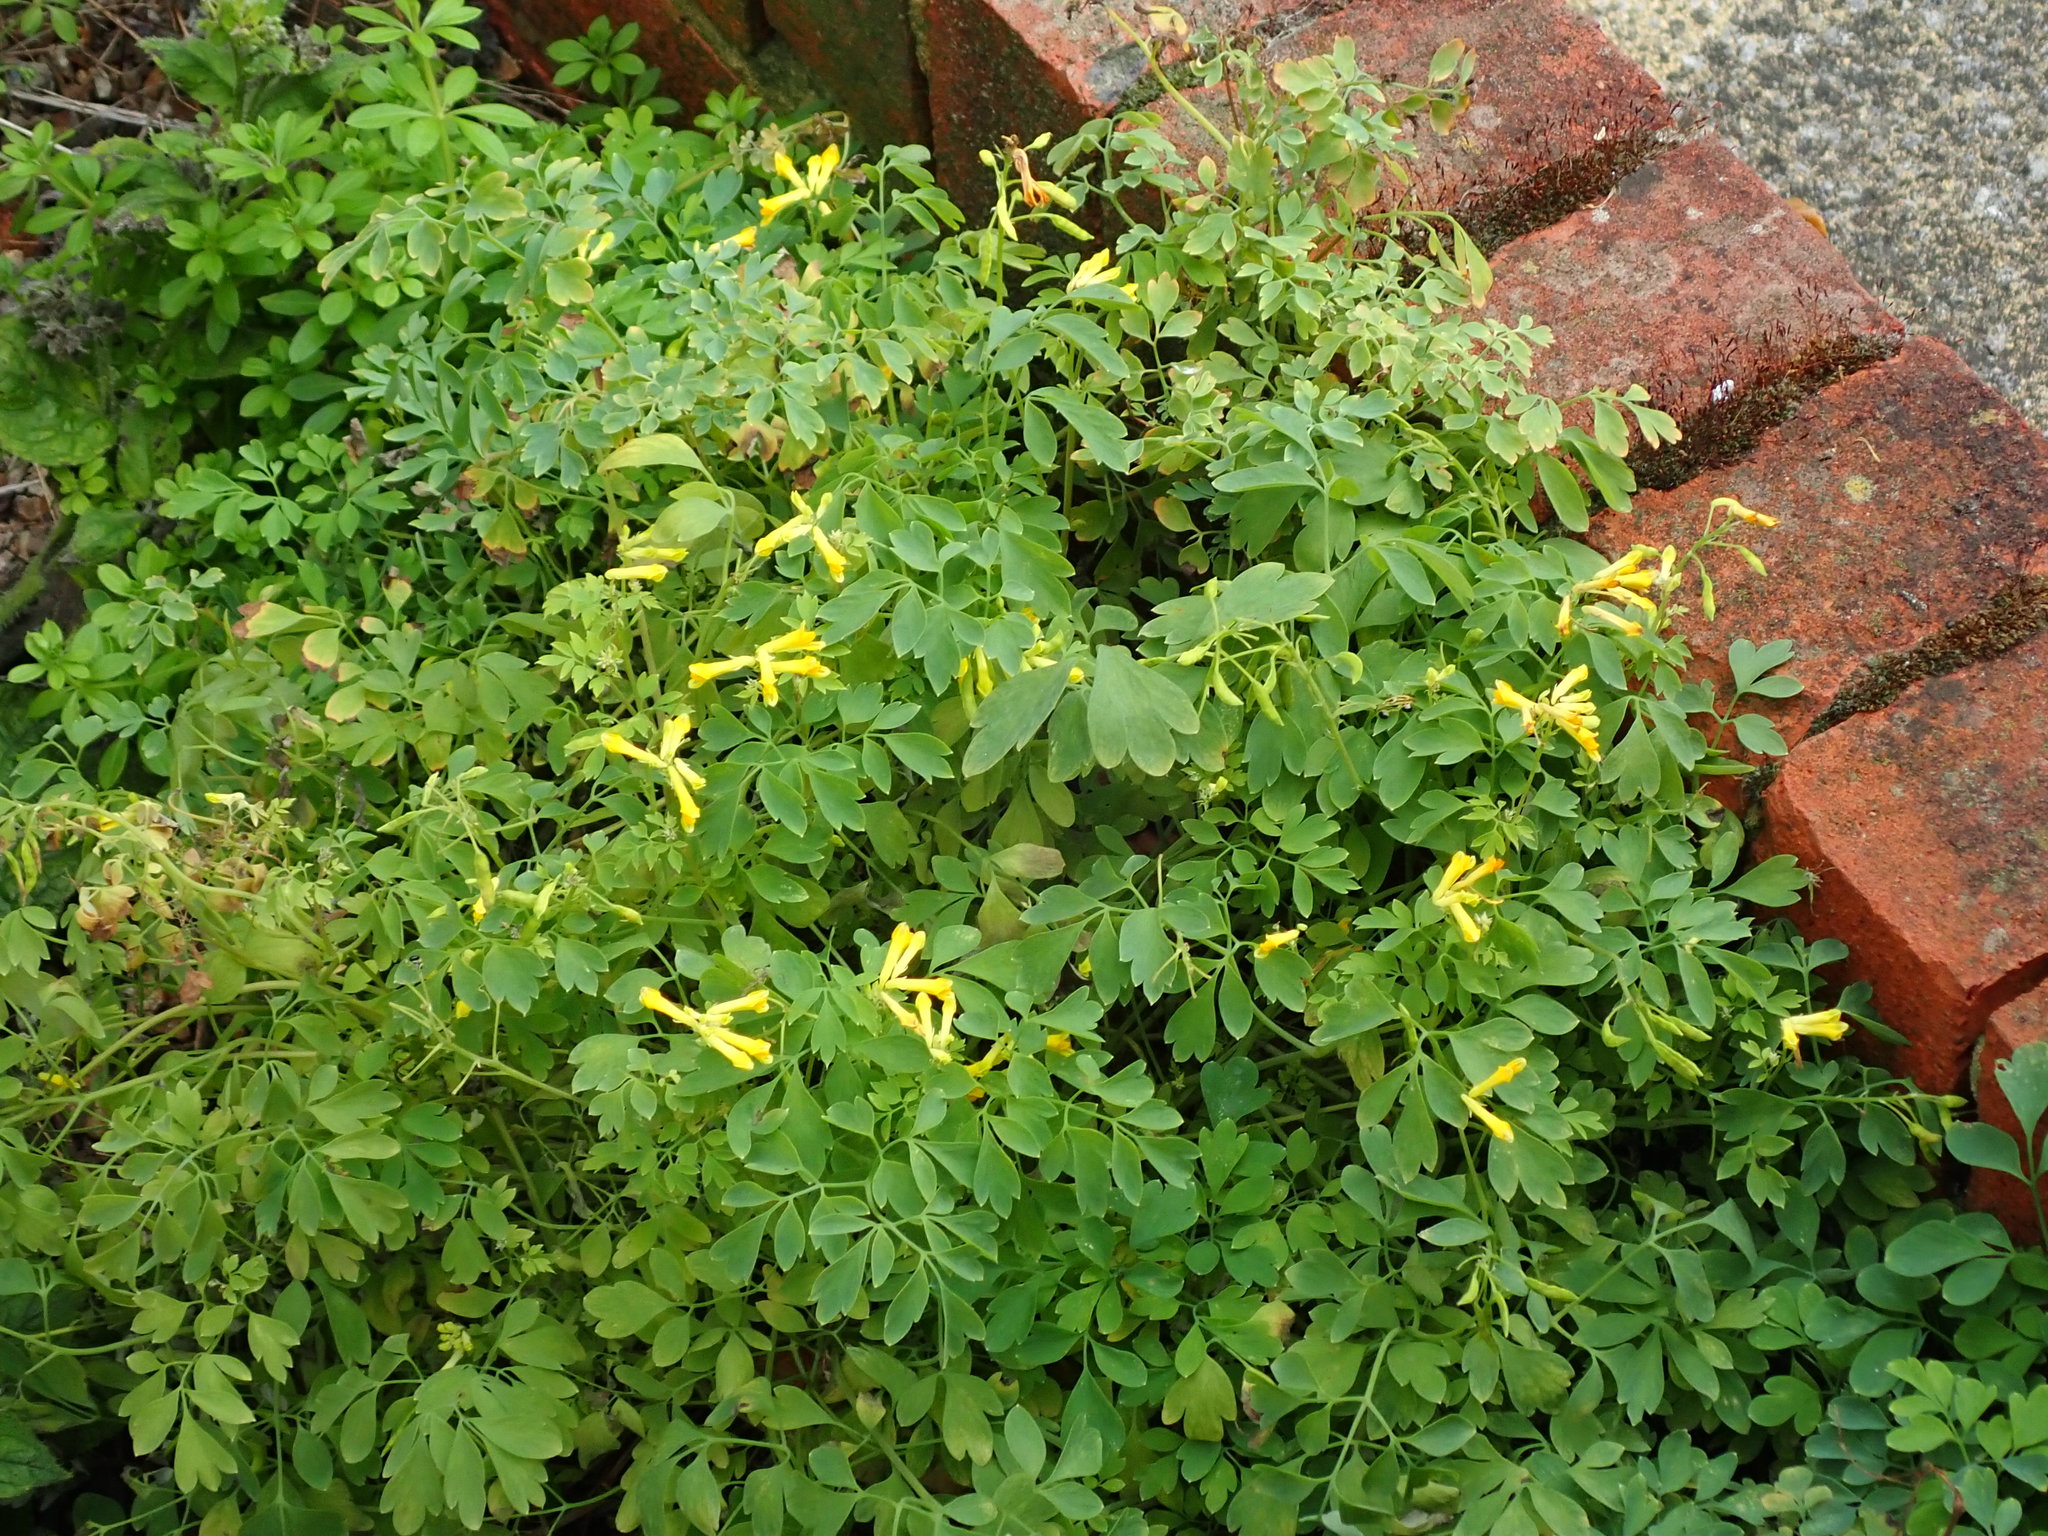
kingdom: Plantae
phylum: Tracheophyta
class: Magnoliopsida
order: Ranunculales
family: Papaveraceae
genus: Pseudofumaria
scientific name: Pseudofumaria lutea
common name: Yellow corydalis
